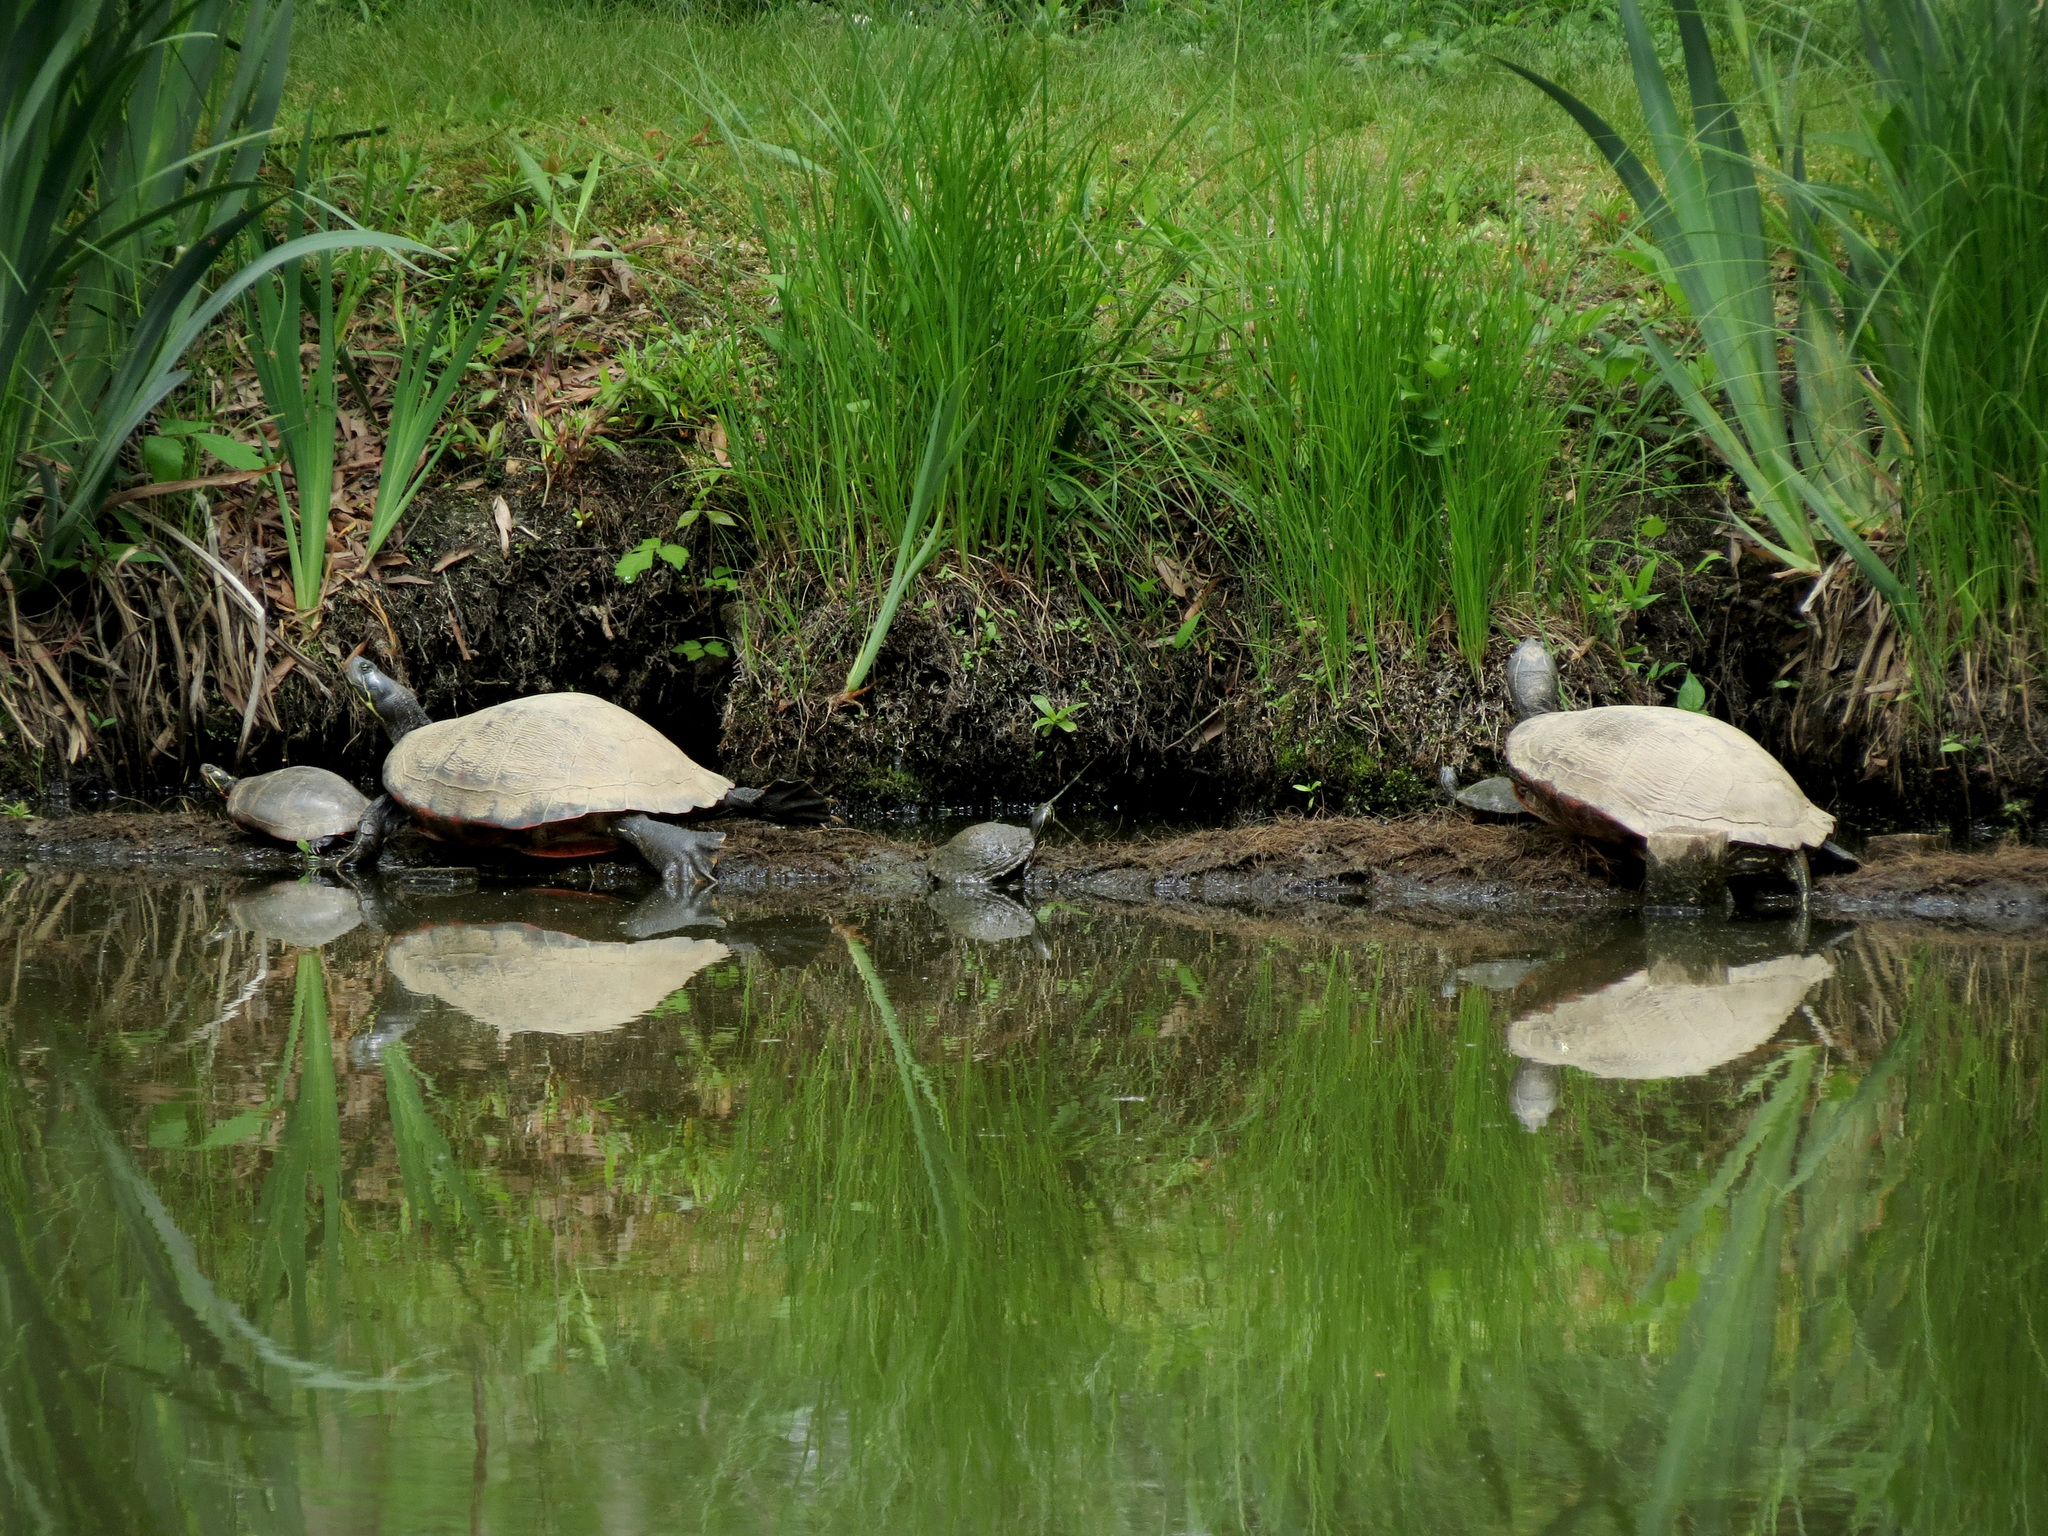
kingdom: Animalia
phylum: Chordata
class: Testudines
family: Emydidae
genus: Pseudemys
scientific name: Pseudemys rubriventris
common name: American red-bellied turtle
